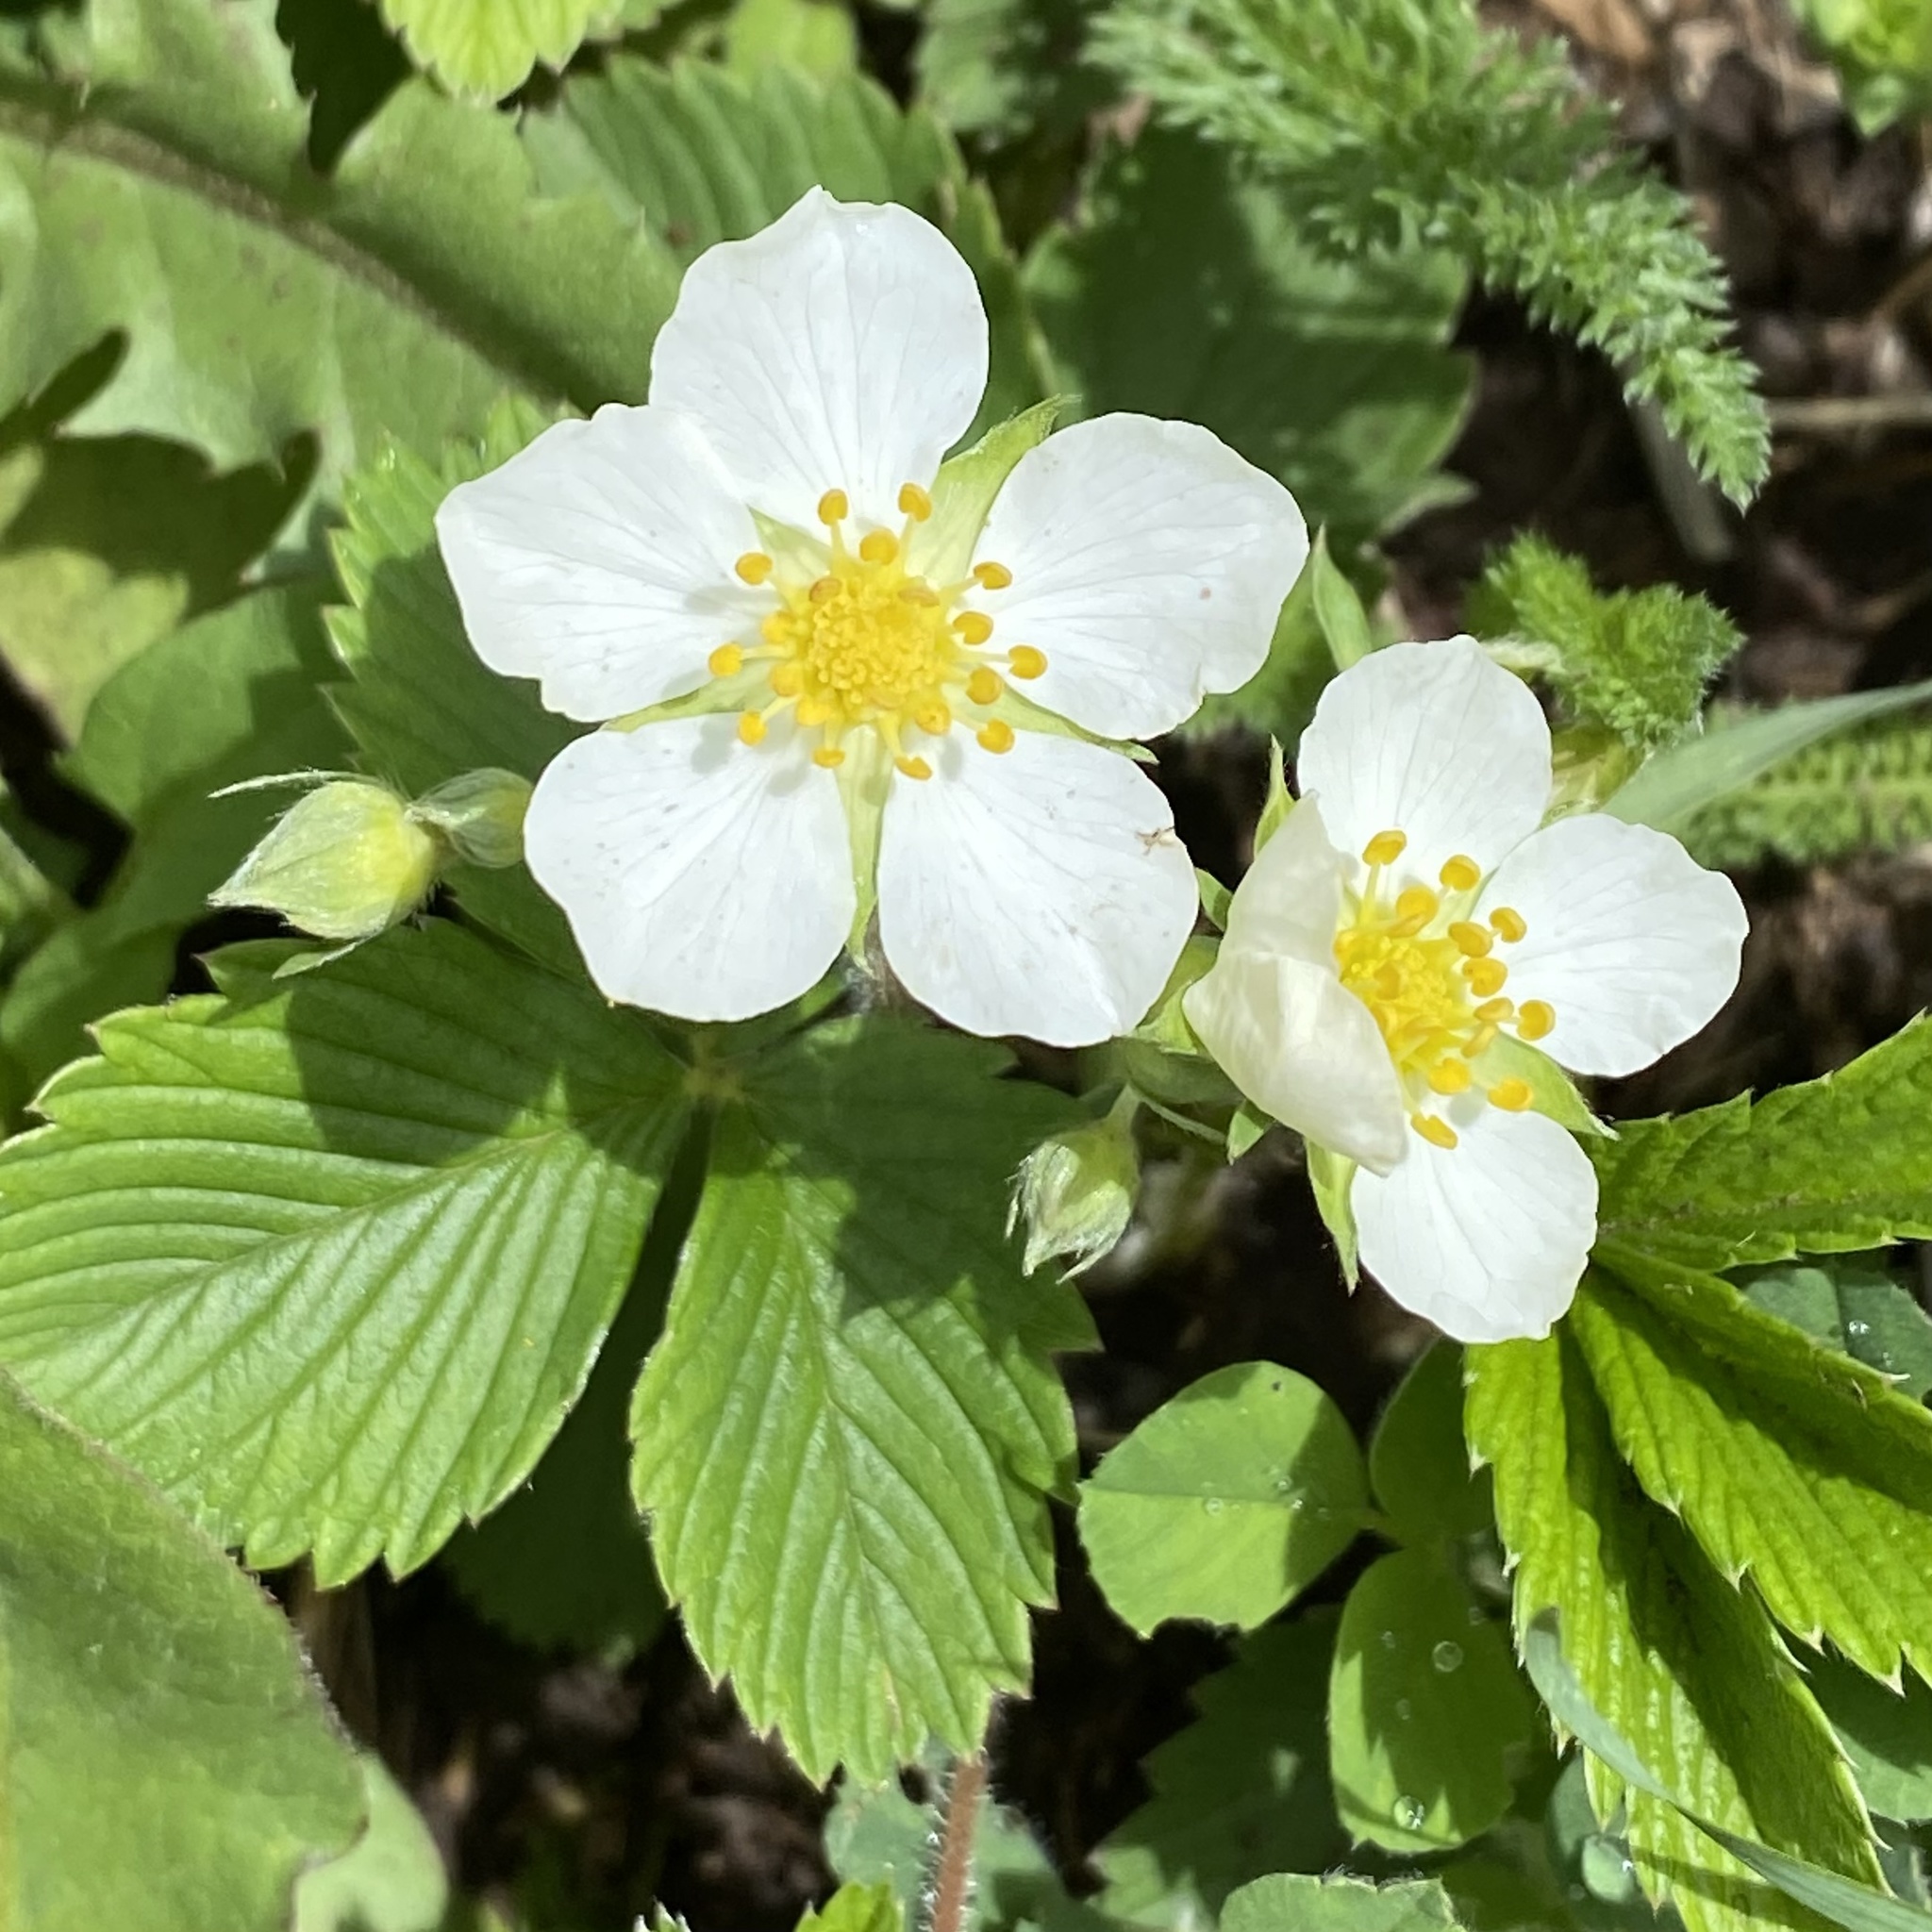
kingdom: Plantae
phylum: Tracheophyta
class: Magnoliopsida
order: Rosales
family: Rosaceae
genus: Fragaria
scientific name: Fragaria viridis
